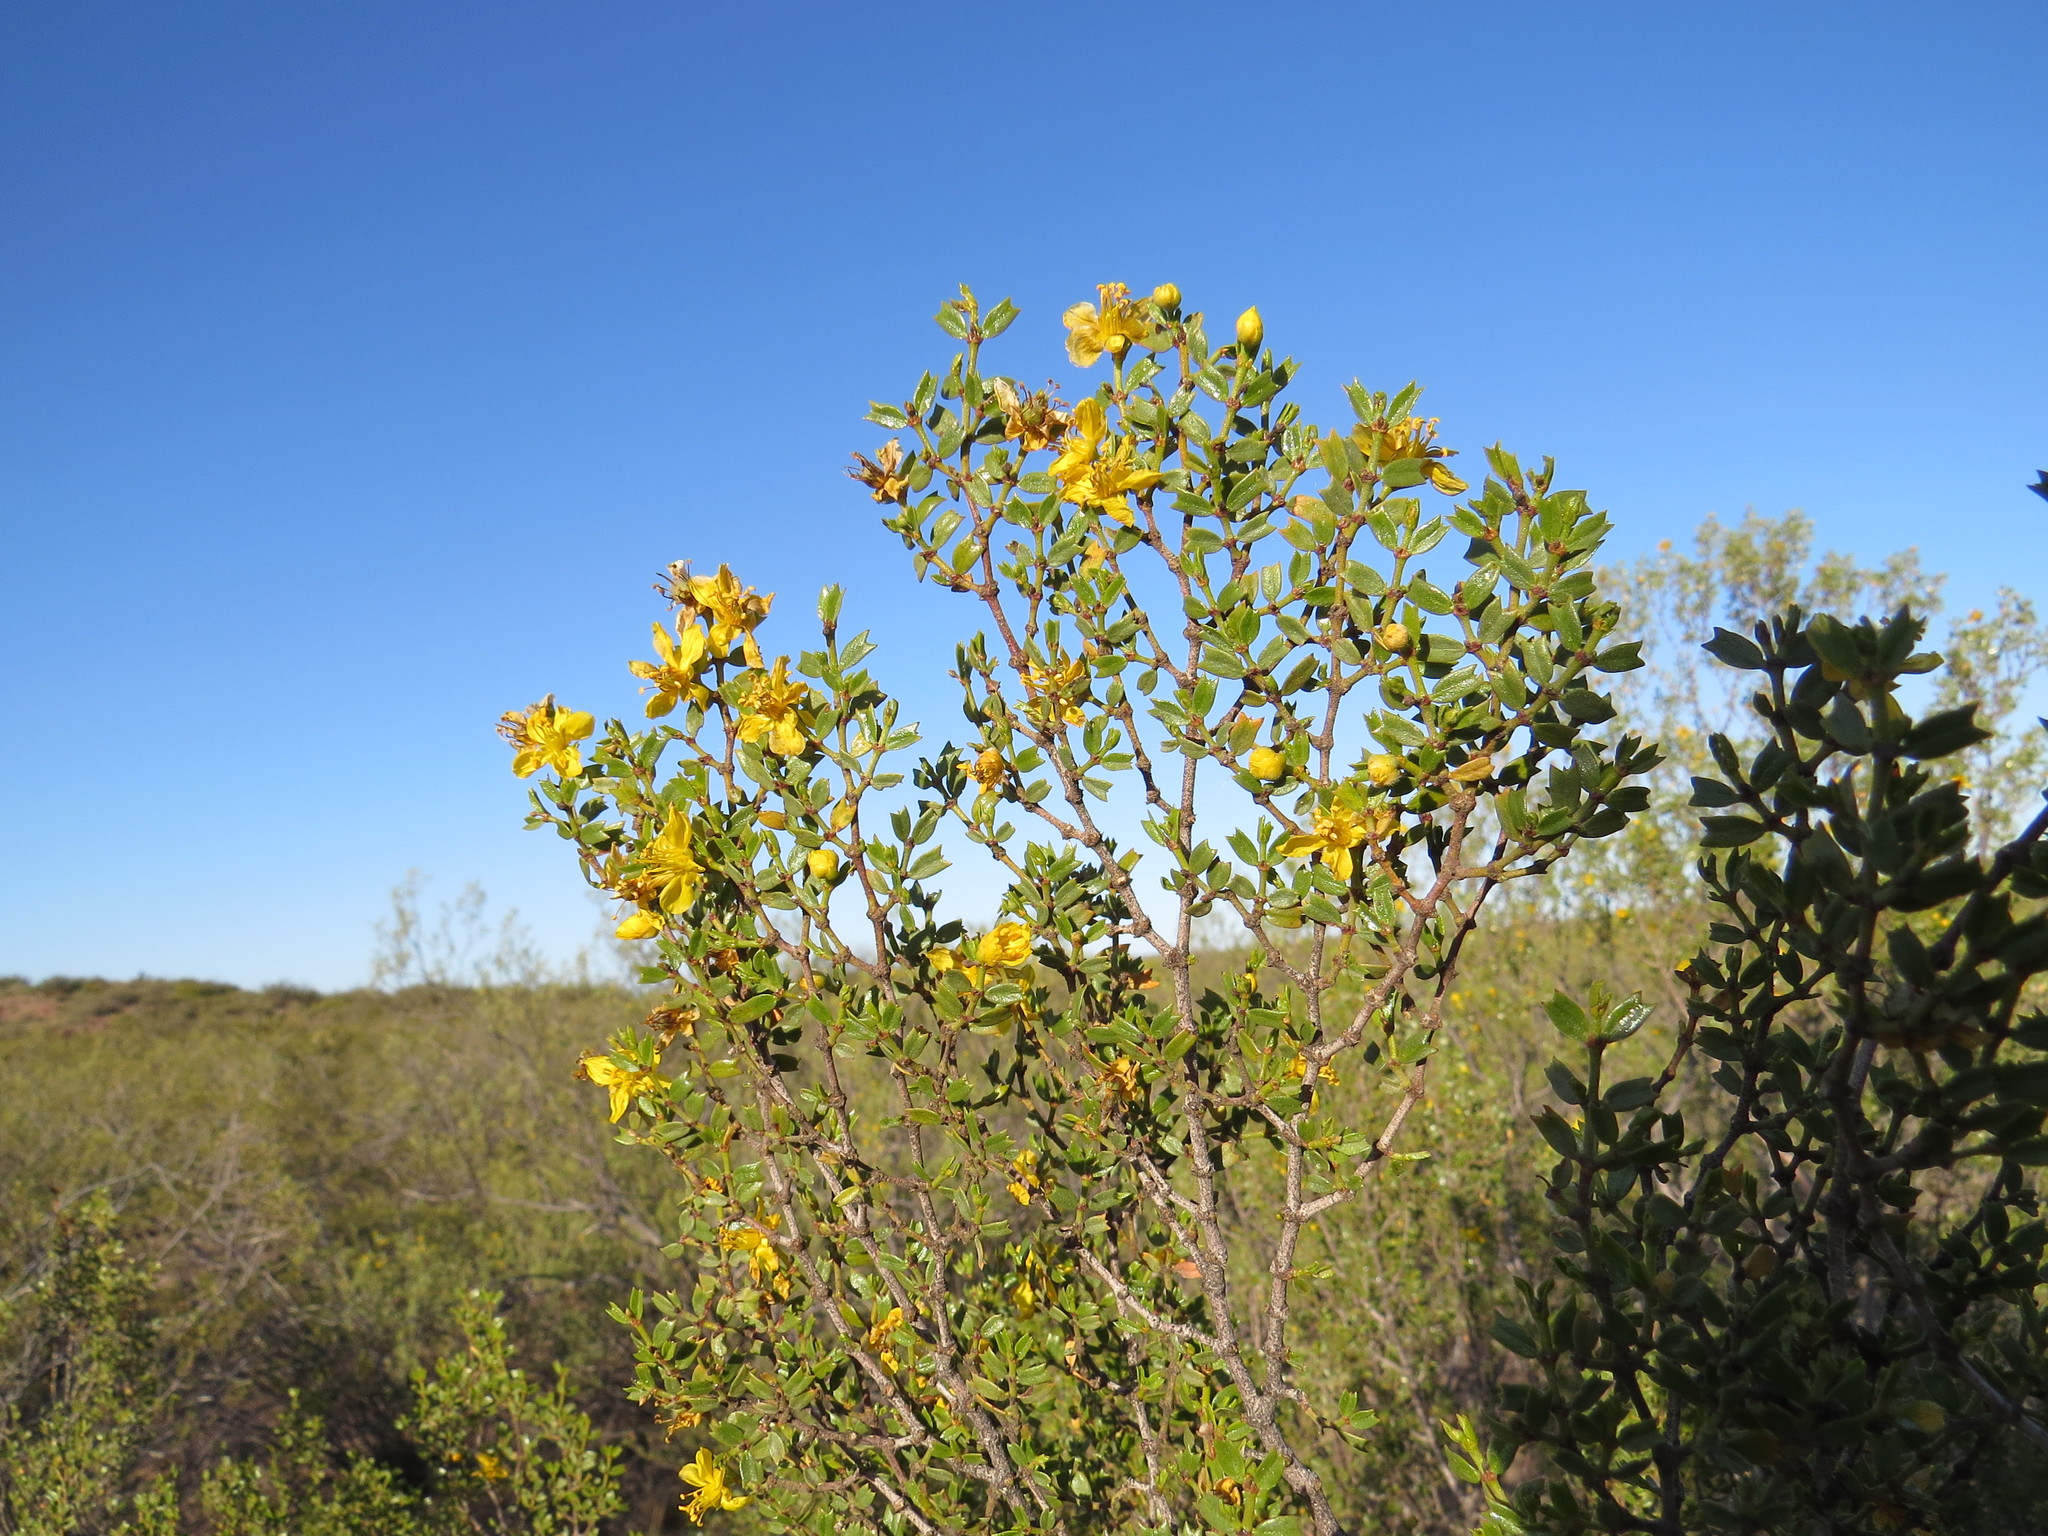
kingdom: Plantae
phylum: Tracheophyta
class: Magnoliopsida
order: Zygophyllales
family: Zygophyllaceae
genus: Larrea
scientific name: Larrea cuneifolia
